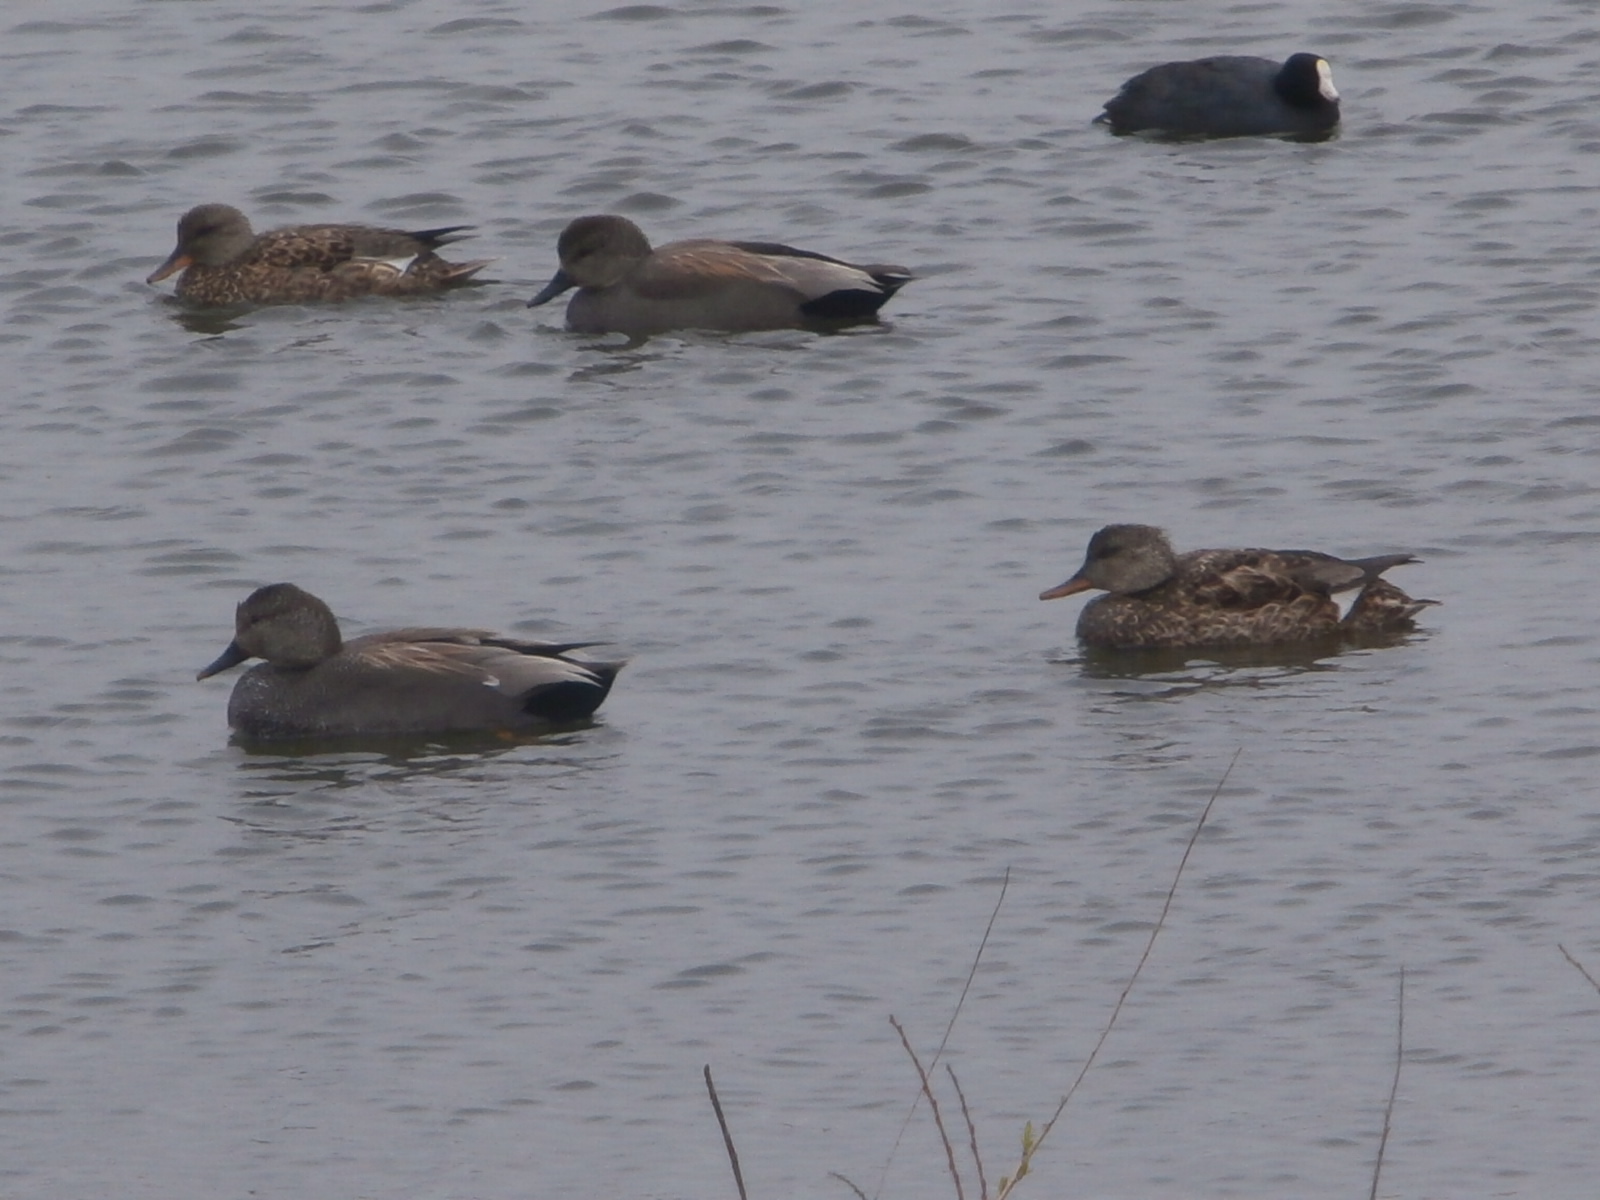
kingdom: Animalia
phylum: Chordata
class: Aves
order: Anseriformes
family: Anatidae
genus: Mareca
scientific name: Mareca strepera
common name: Gadwall
